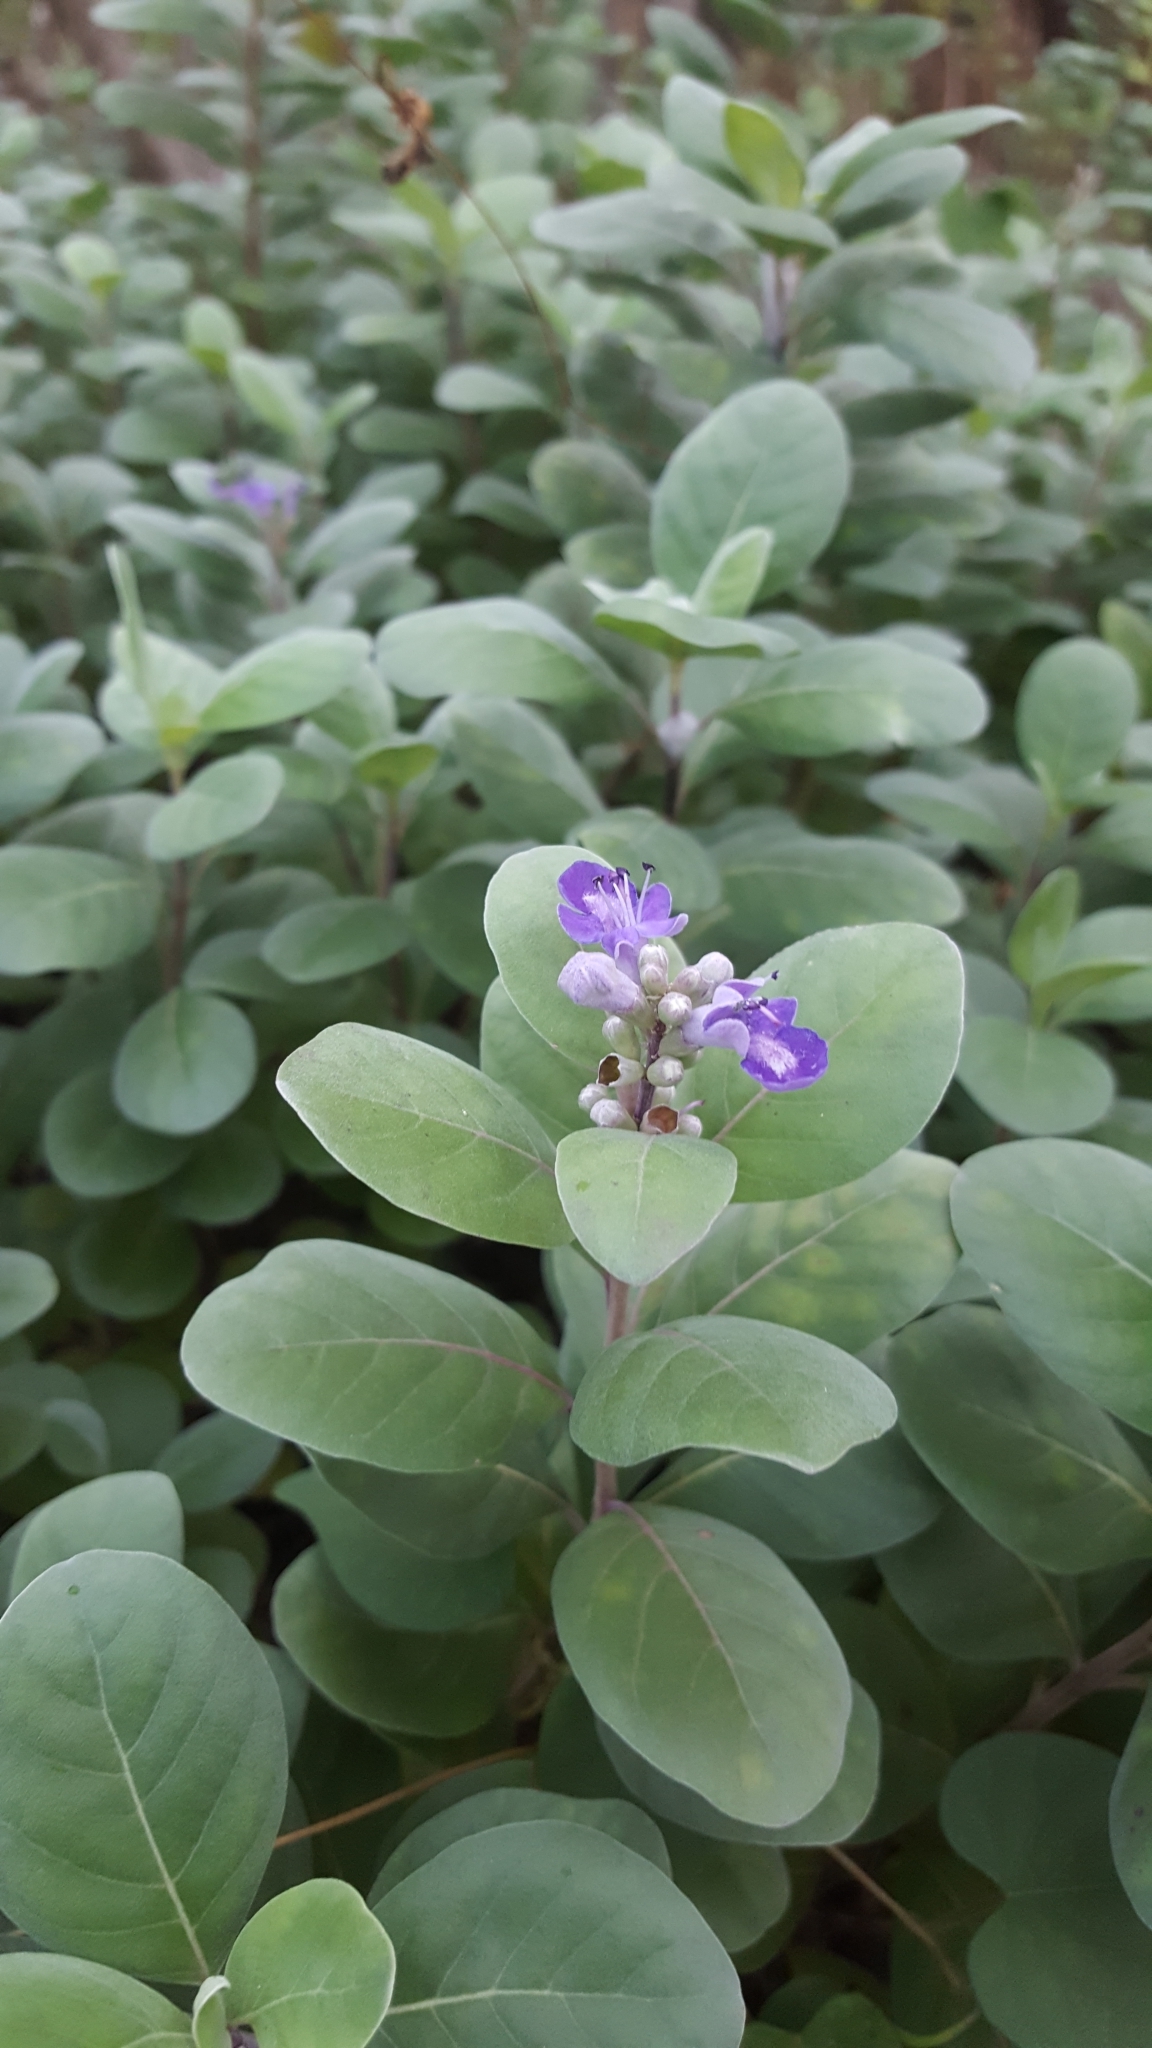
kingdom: Plantae
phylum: Tracheophyta
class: Magnoliopsida
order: Lamiales
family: Lamiaceae
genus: Vitex
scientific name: Vitex rotundifolia
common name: Beach vitex
